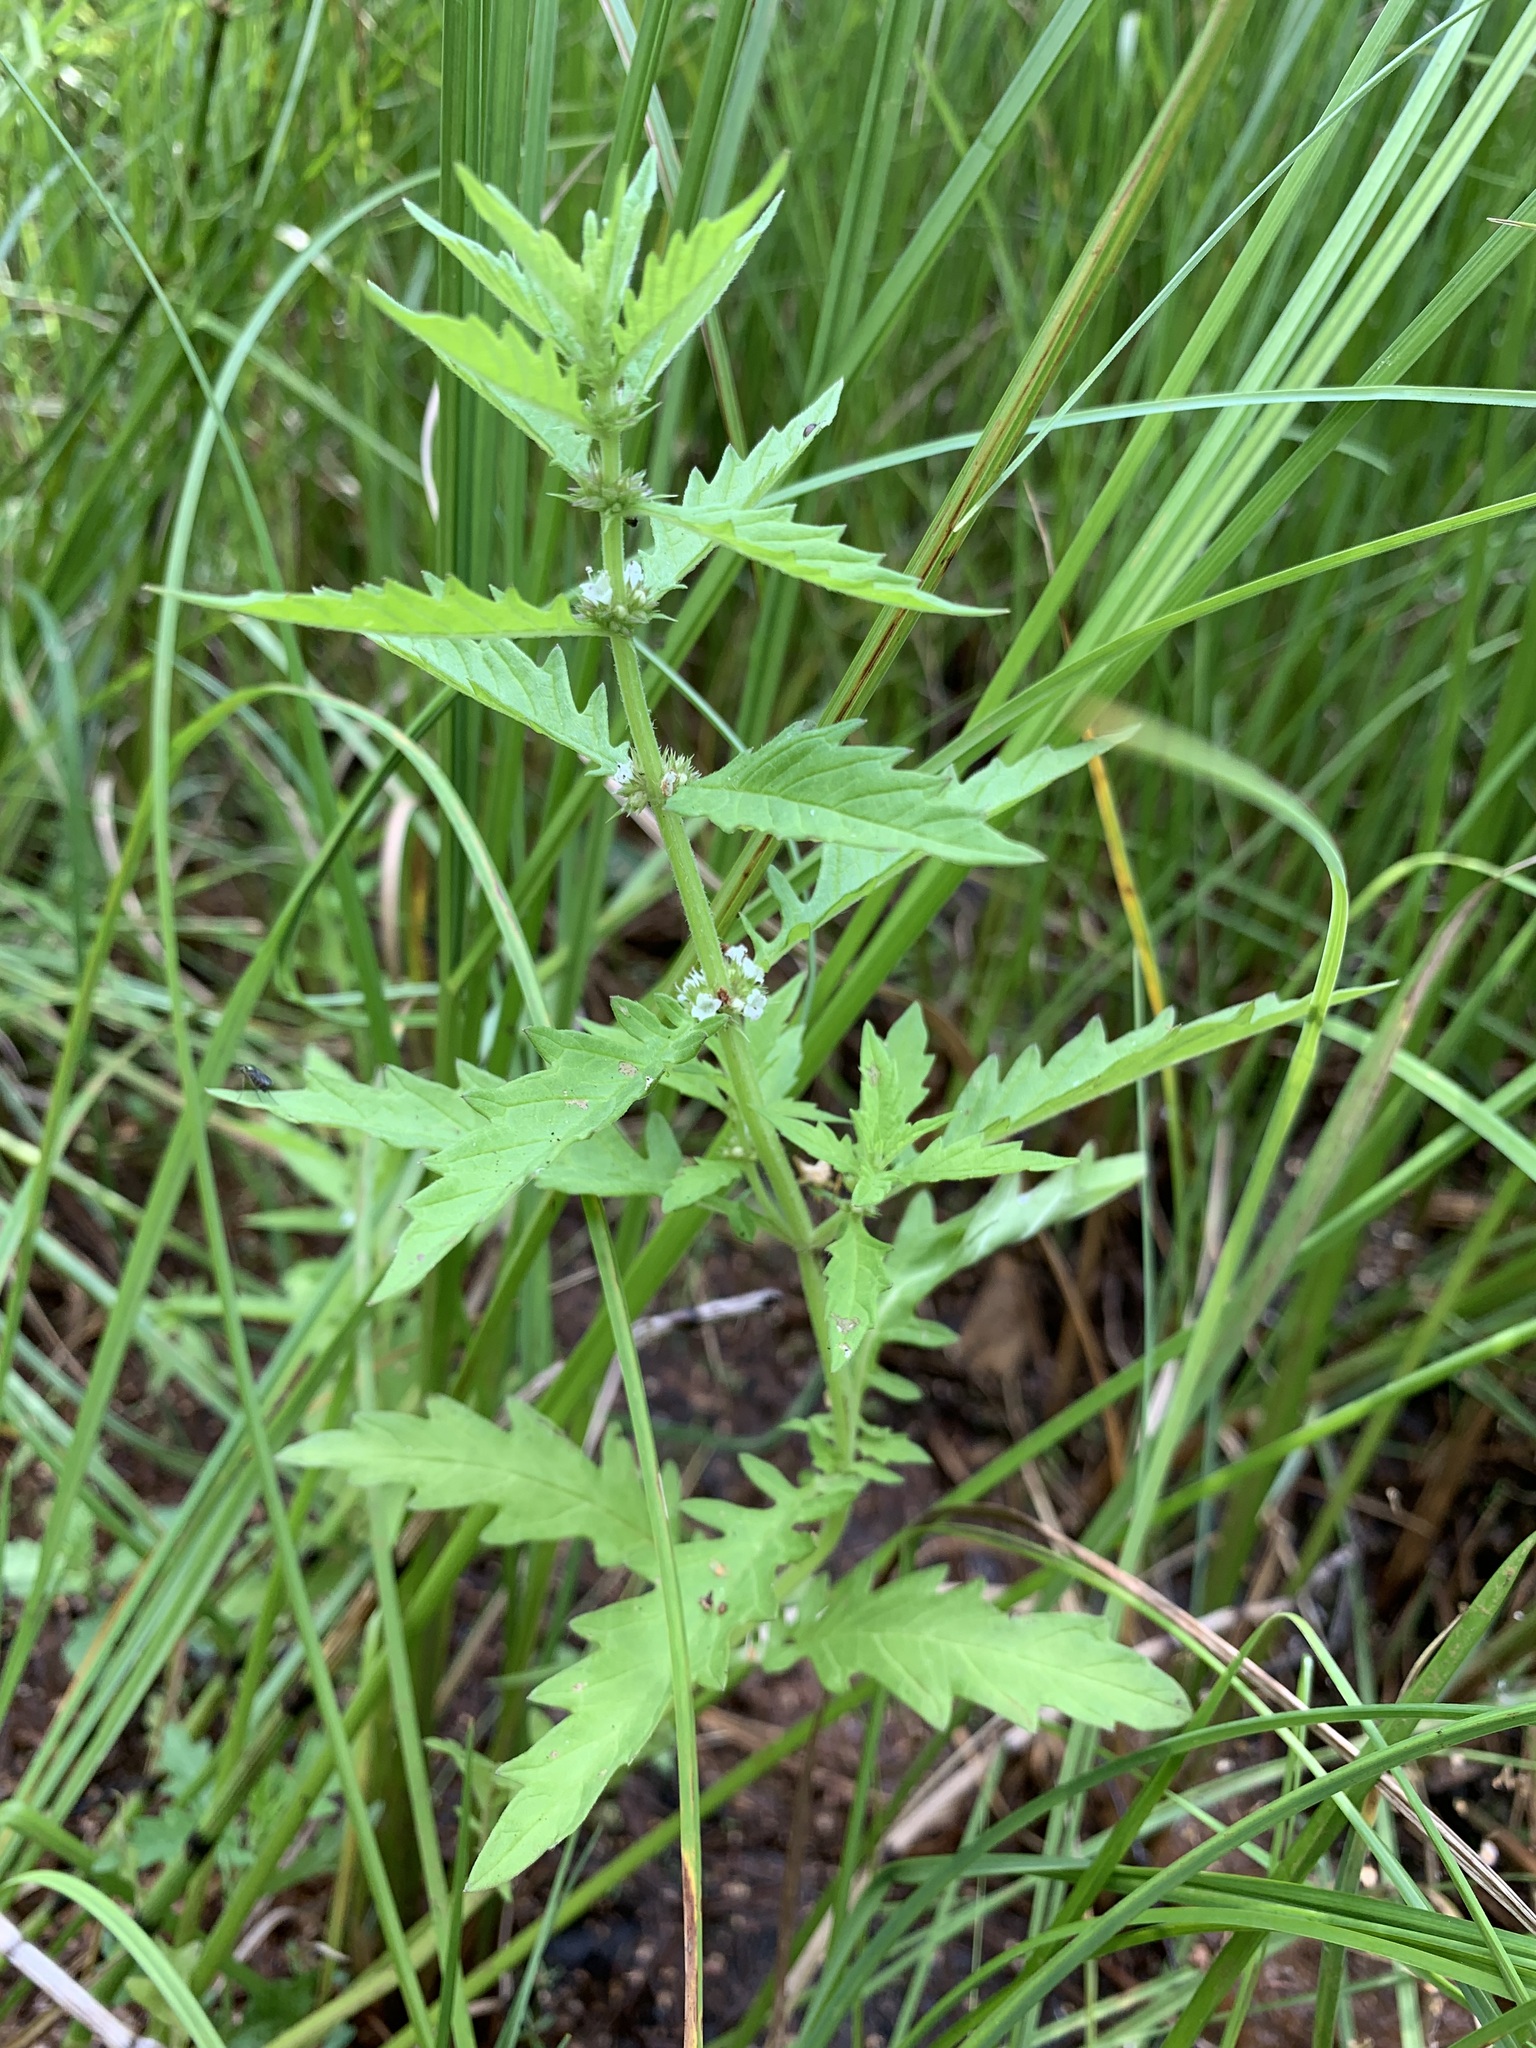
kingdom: Plantae
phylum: Tracheophyta
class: Magnoliopsida
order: Lamiales
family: Lamiaceae
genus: Lycopus
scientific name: Lycopus europaeus
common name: European bugleweed
